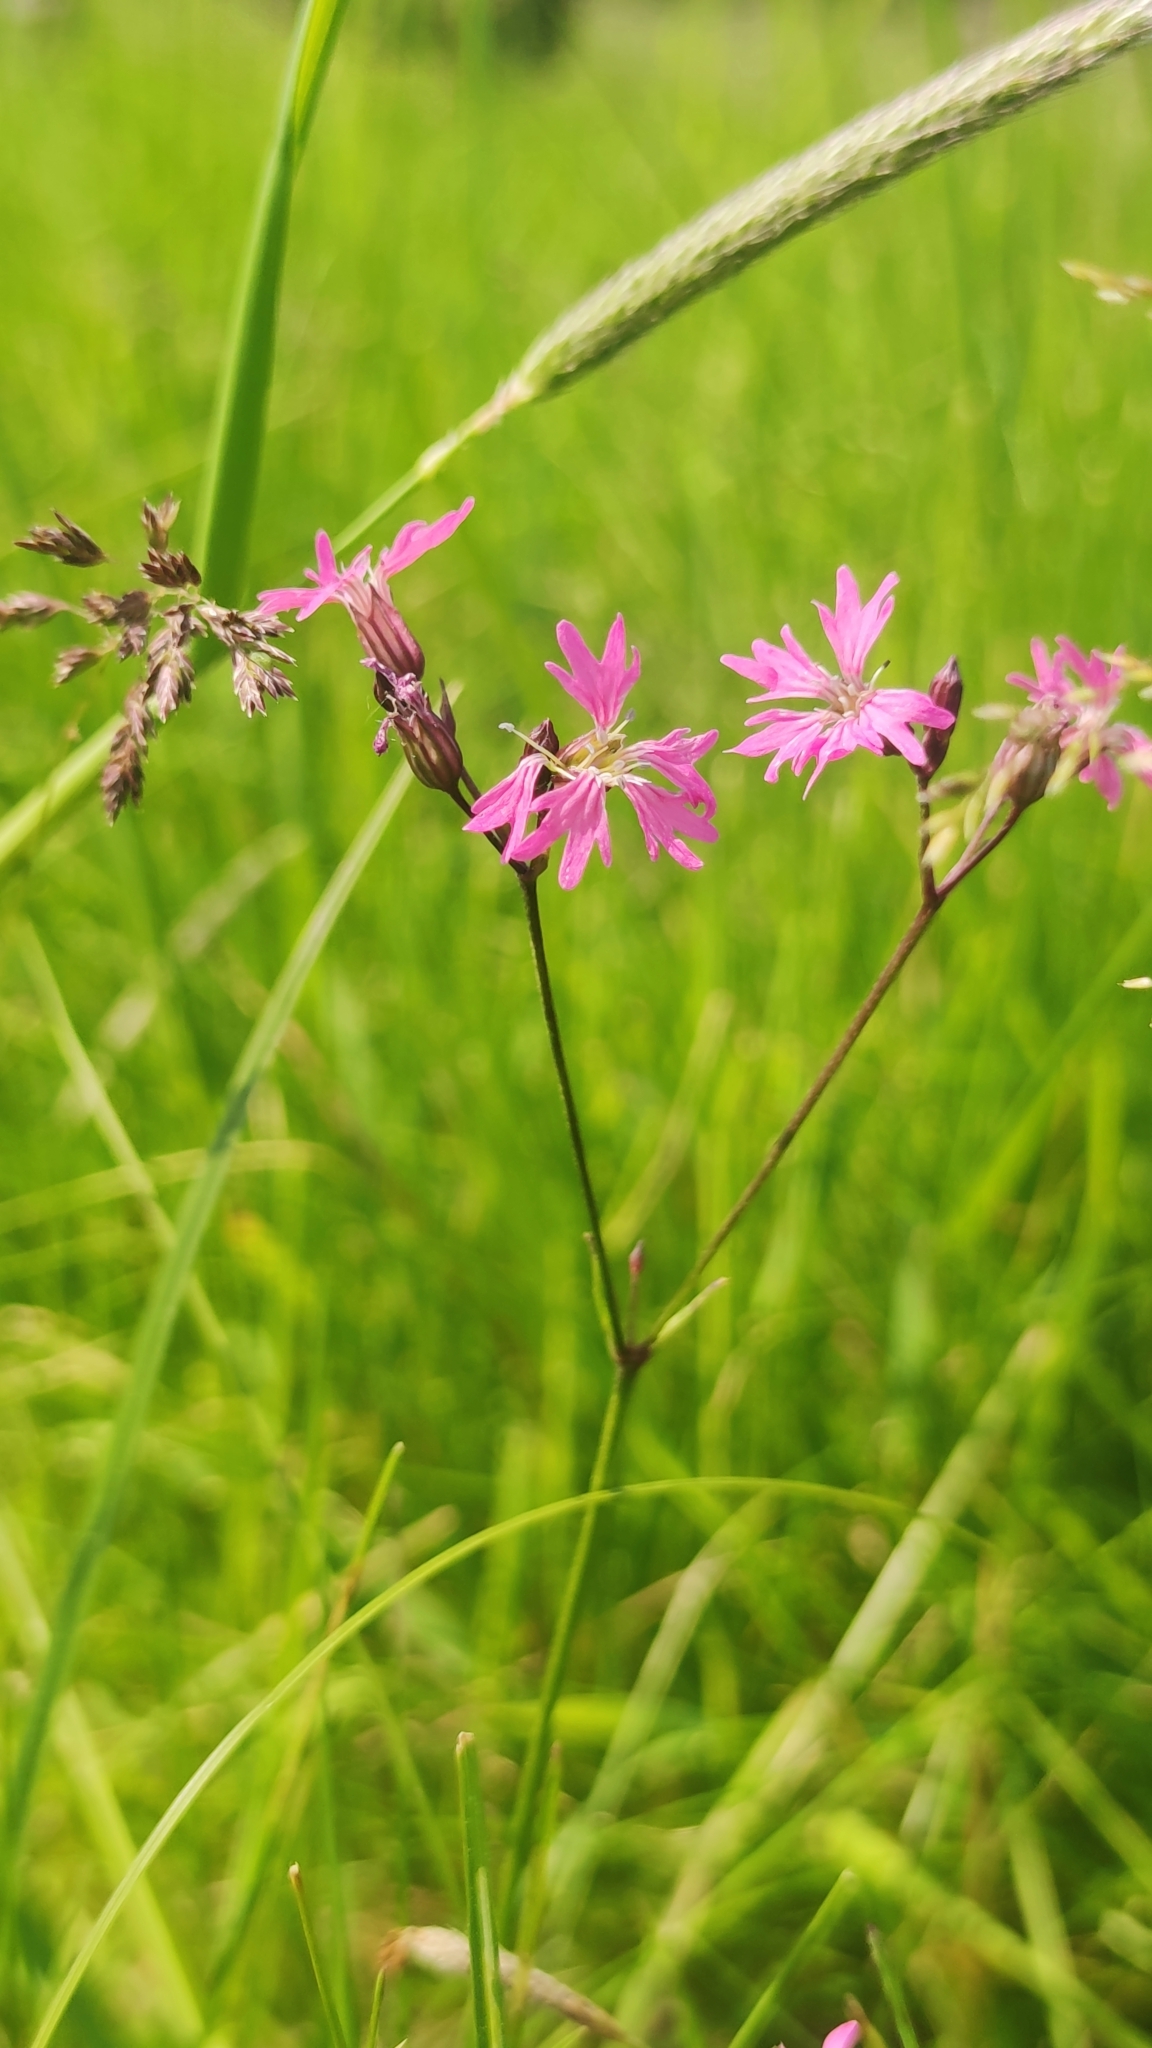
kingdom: Plantae
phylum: Tracheophyta
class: Magnoliopsida
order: Caryophyllales
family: Caryophyllaceae
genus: Silene
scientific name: Silene flos-cuculi
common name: Ragged-robin
